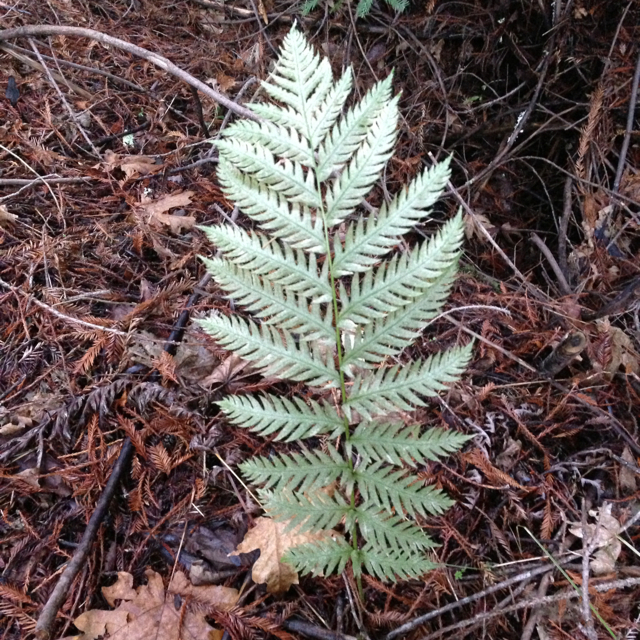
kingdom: Plantae
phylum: Tracheophyta
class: Polypodiopsida
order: Polypodiales
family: Blechnaceae
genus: Woodwardia
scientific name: Woodwardia fimbriata
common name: Giant chain fern
